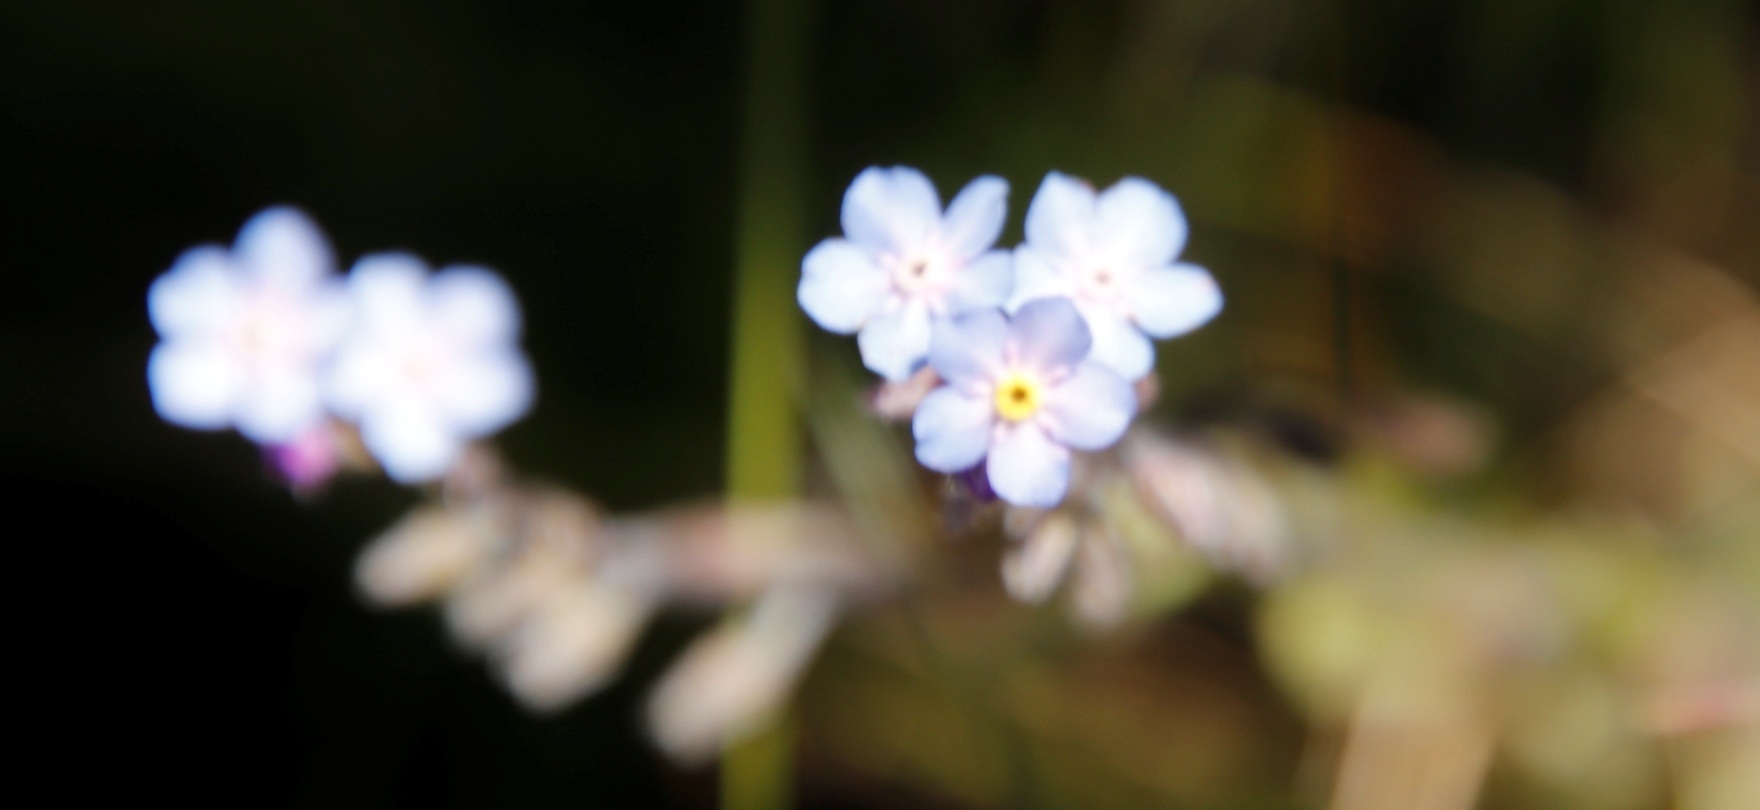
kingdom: Plantae
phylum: Tracheophyta
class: Magnoliopsida
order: Boraginales
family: Boraginaceae
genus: Myosotis
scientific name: Myosotis semiamplexicaulis
